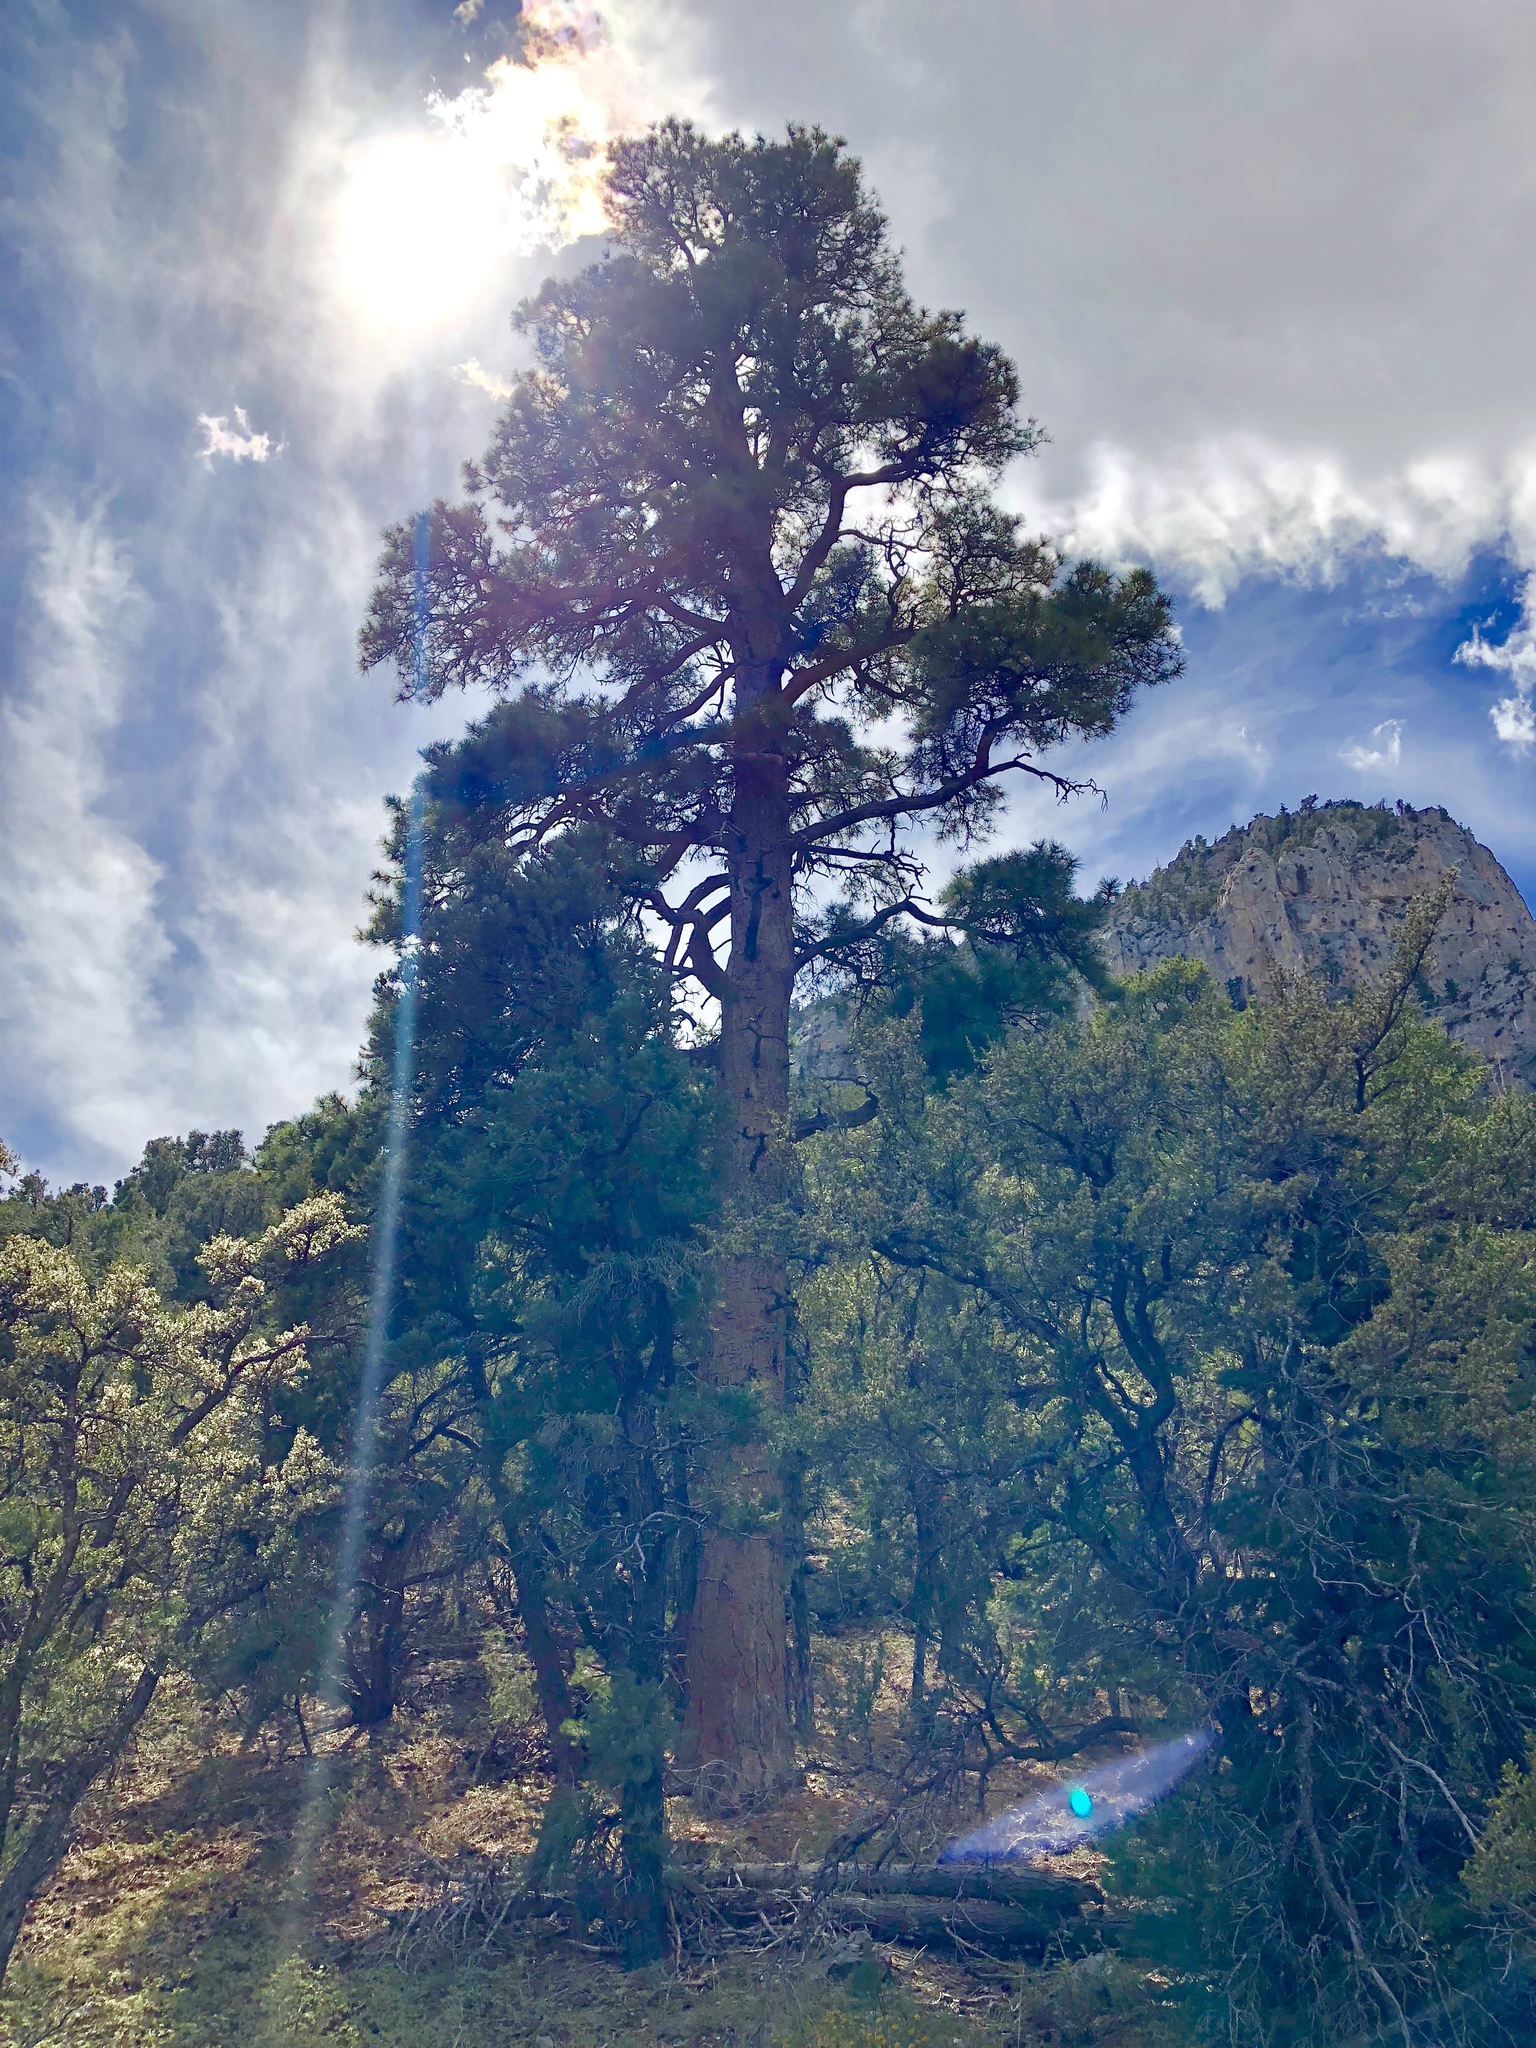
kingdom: Plantae
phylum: Tracheophyta
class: Pinopsida
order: Pinales
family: Pinaceae
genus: Pinus
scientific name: Pinus ponderosa
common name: Western yellow-pine
